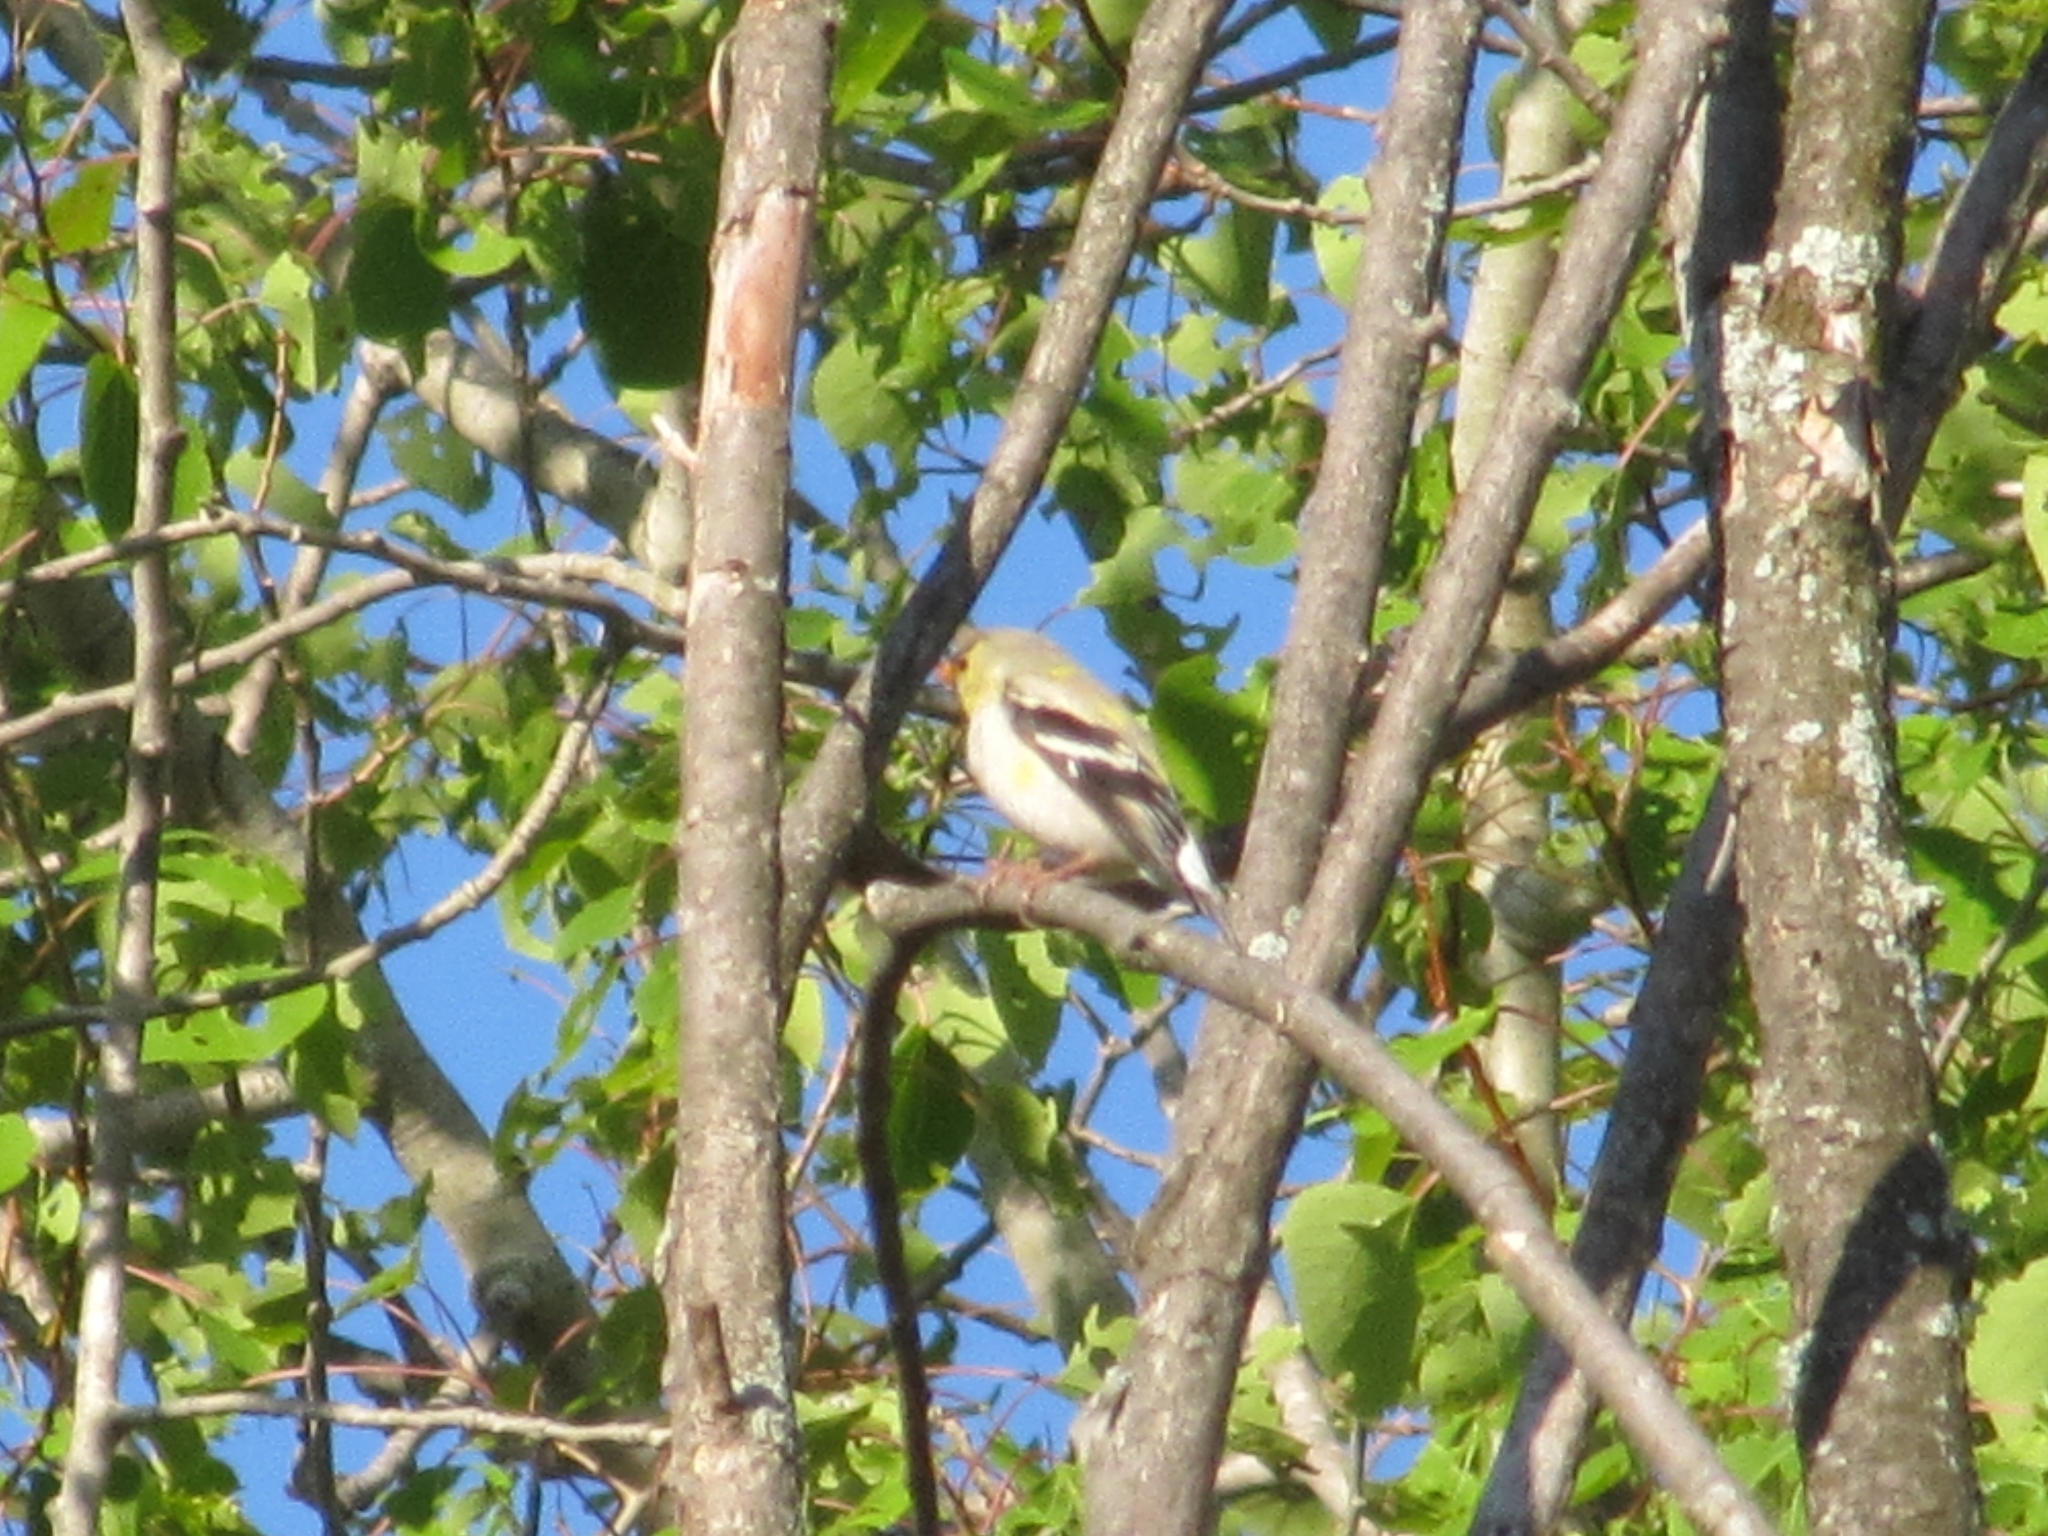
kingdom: Animalia
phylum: Chordata
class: Aves
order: Passeriformes
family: Fringillidae
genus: Spinus
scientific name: Spinus tristis
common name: American goldfinch
